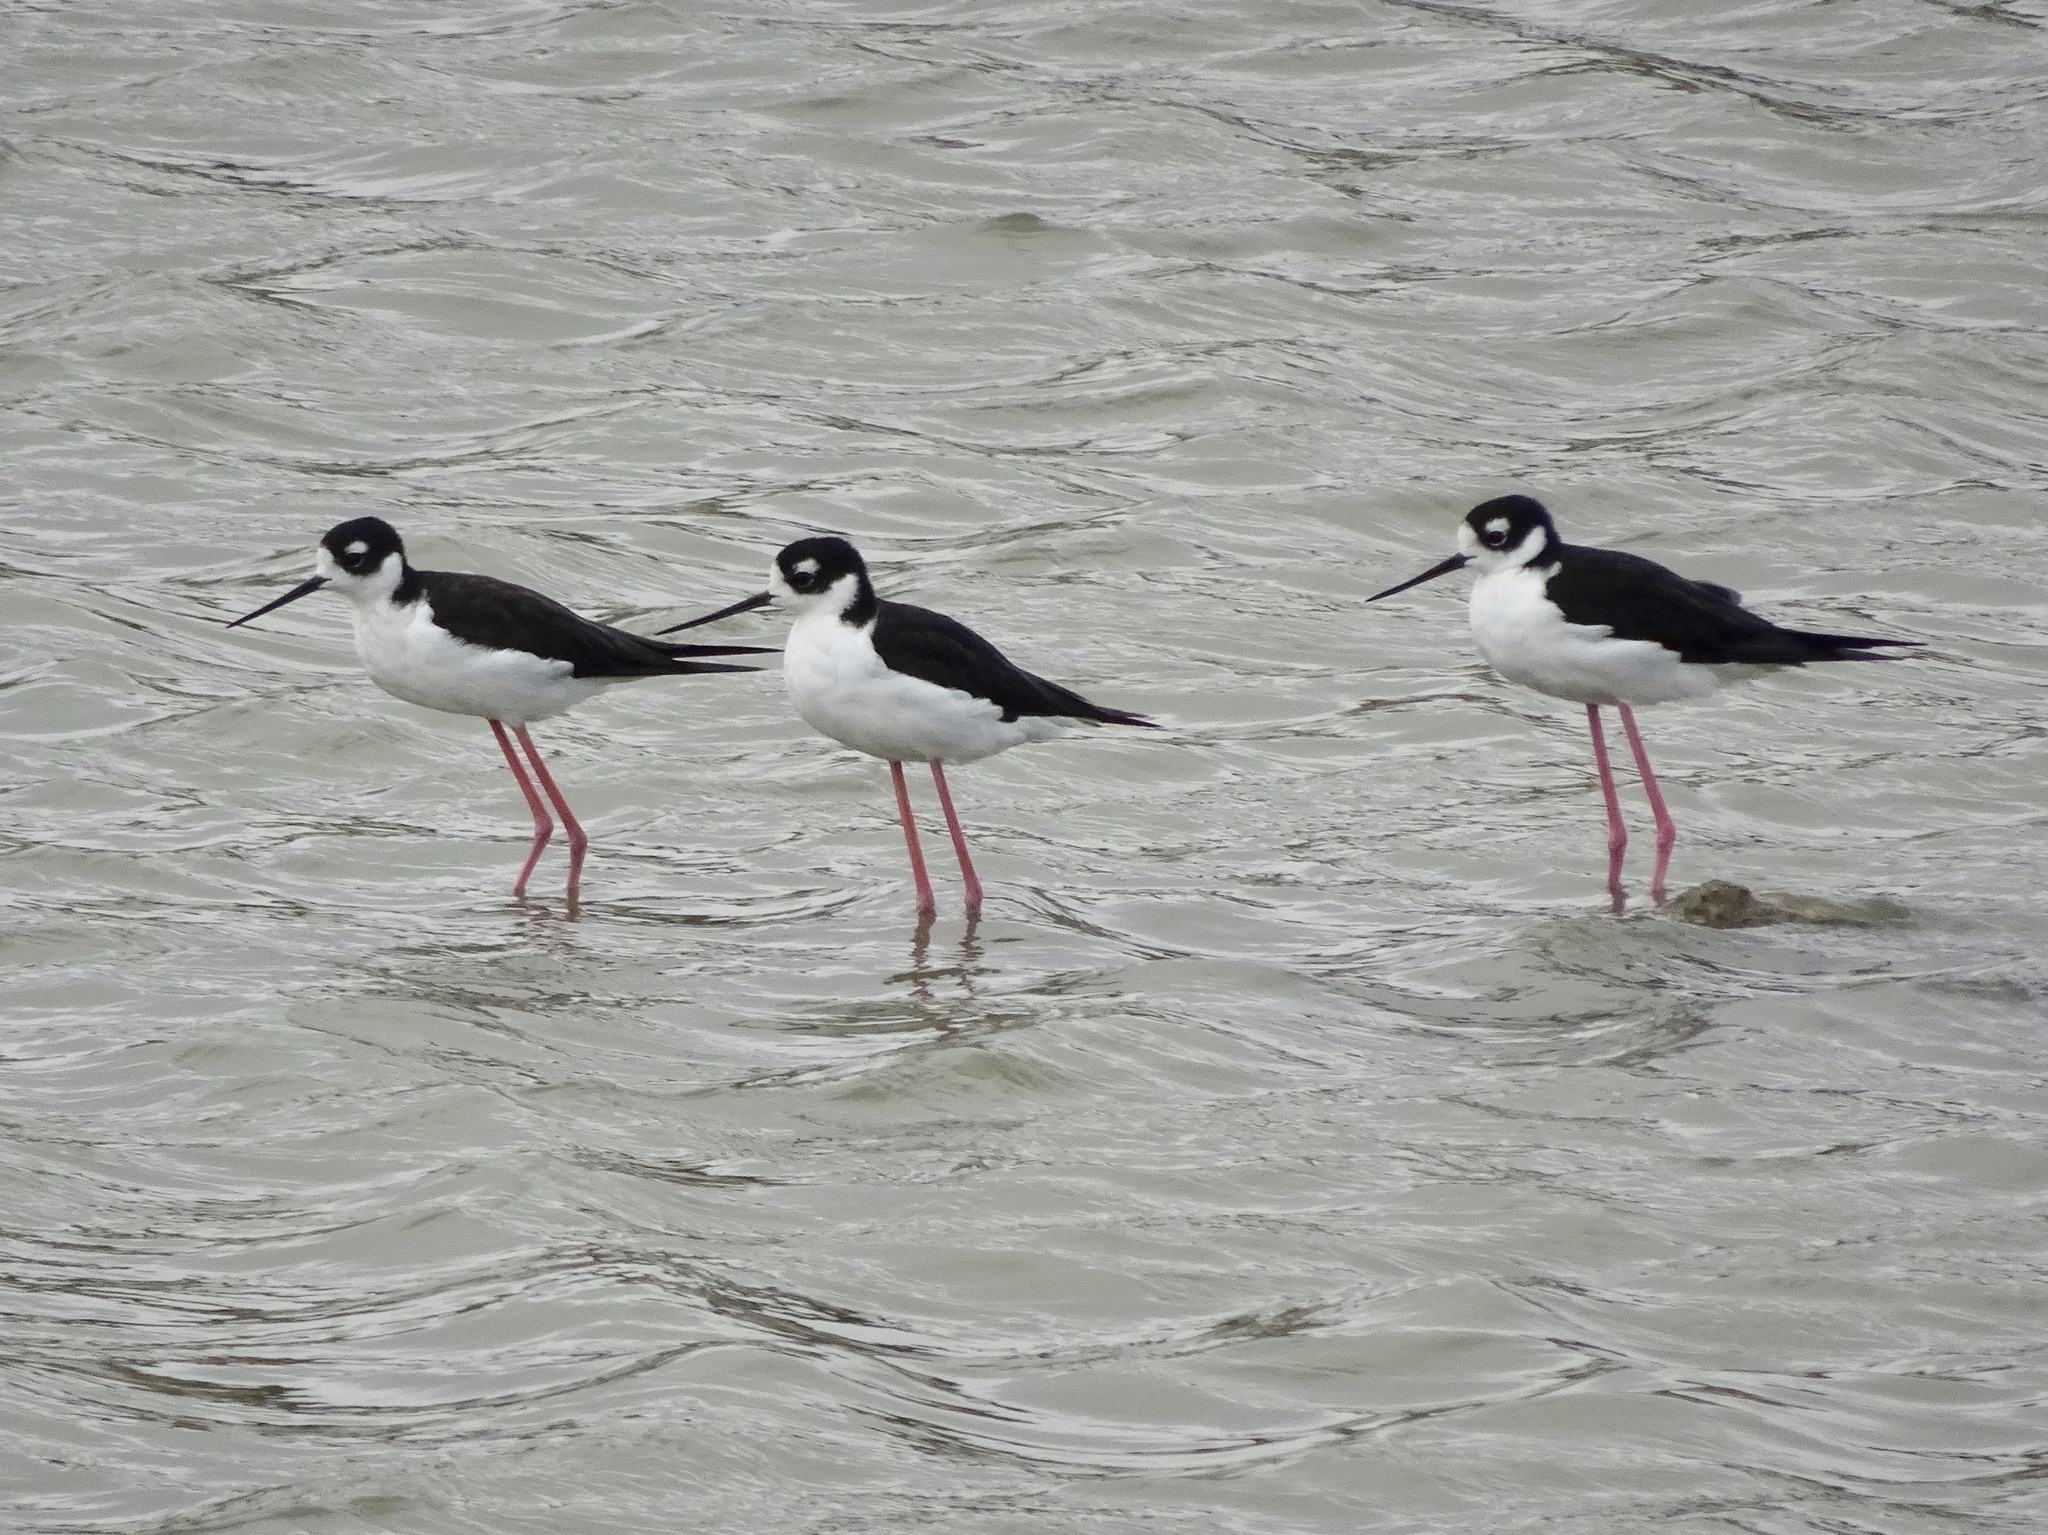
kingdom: Animalia
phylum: Chordata
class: Aves
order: Charadriiformes
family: Recurvirostridae
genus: Himantopus
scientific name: Himantopus mexicanus
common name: Black-necked stilt
